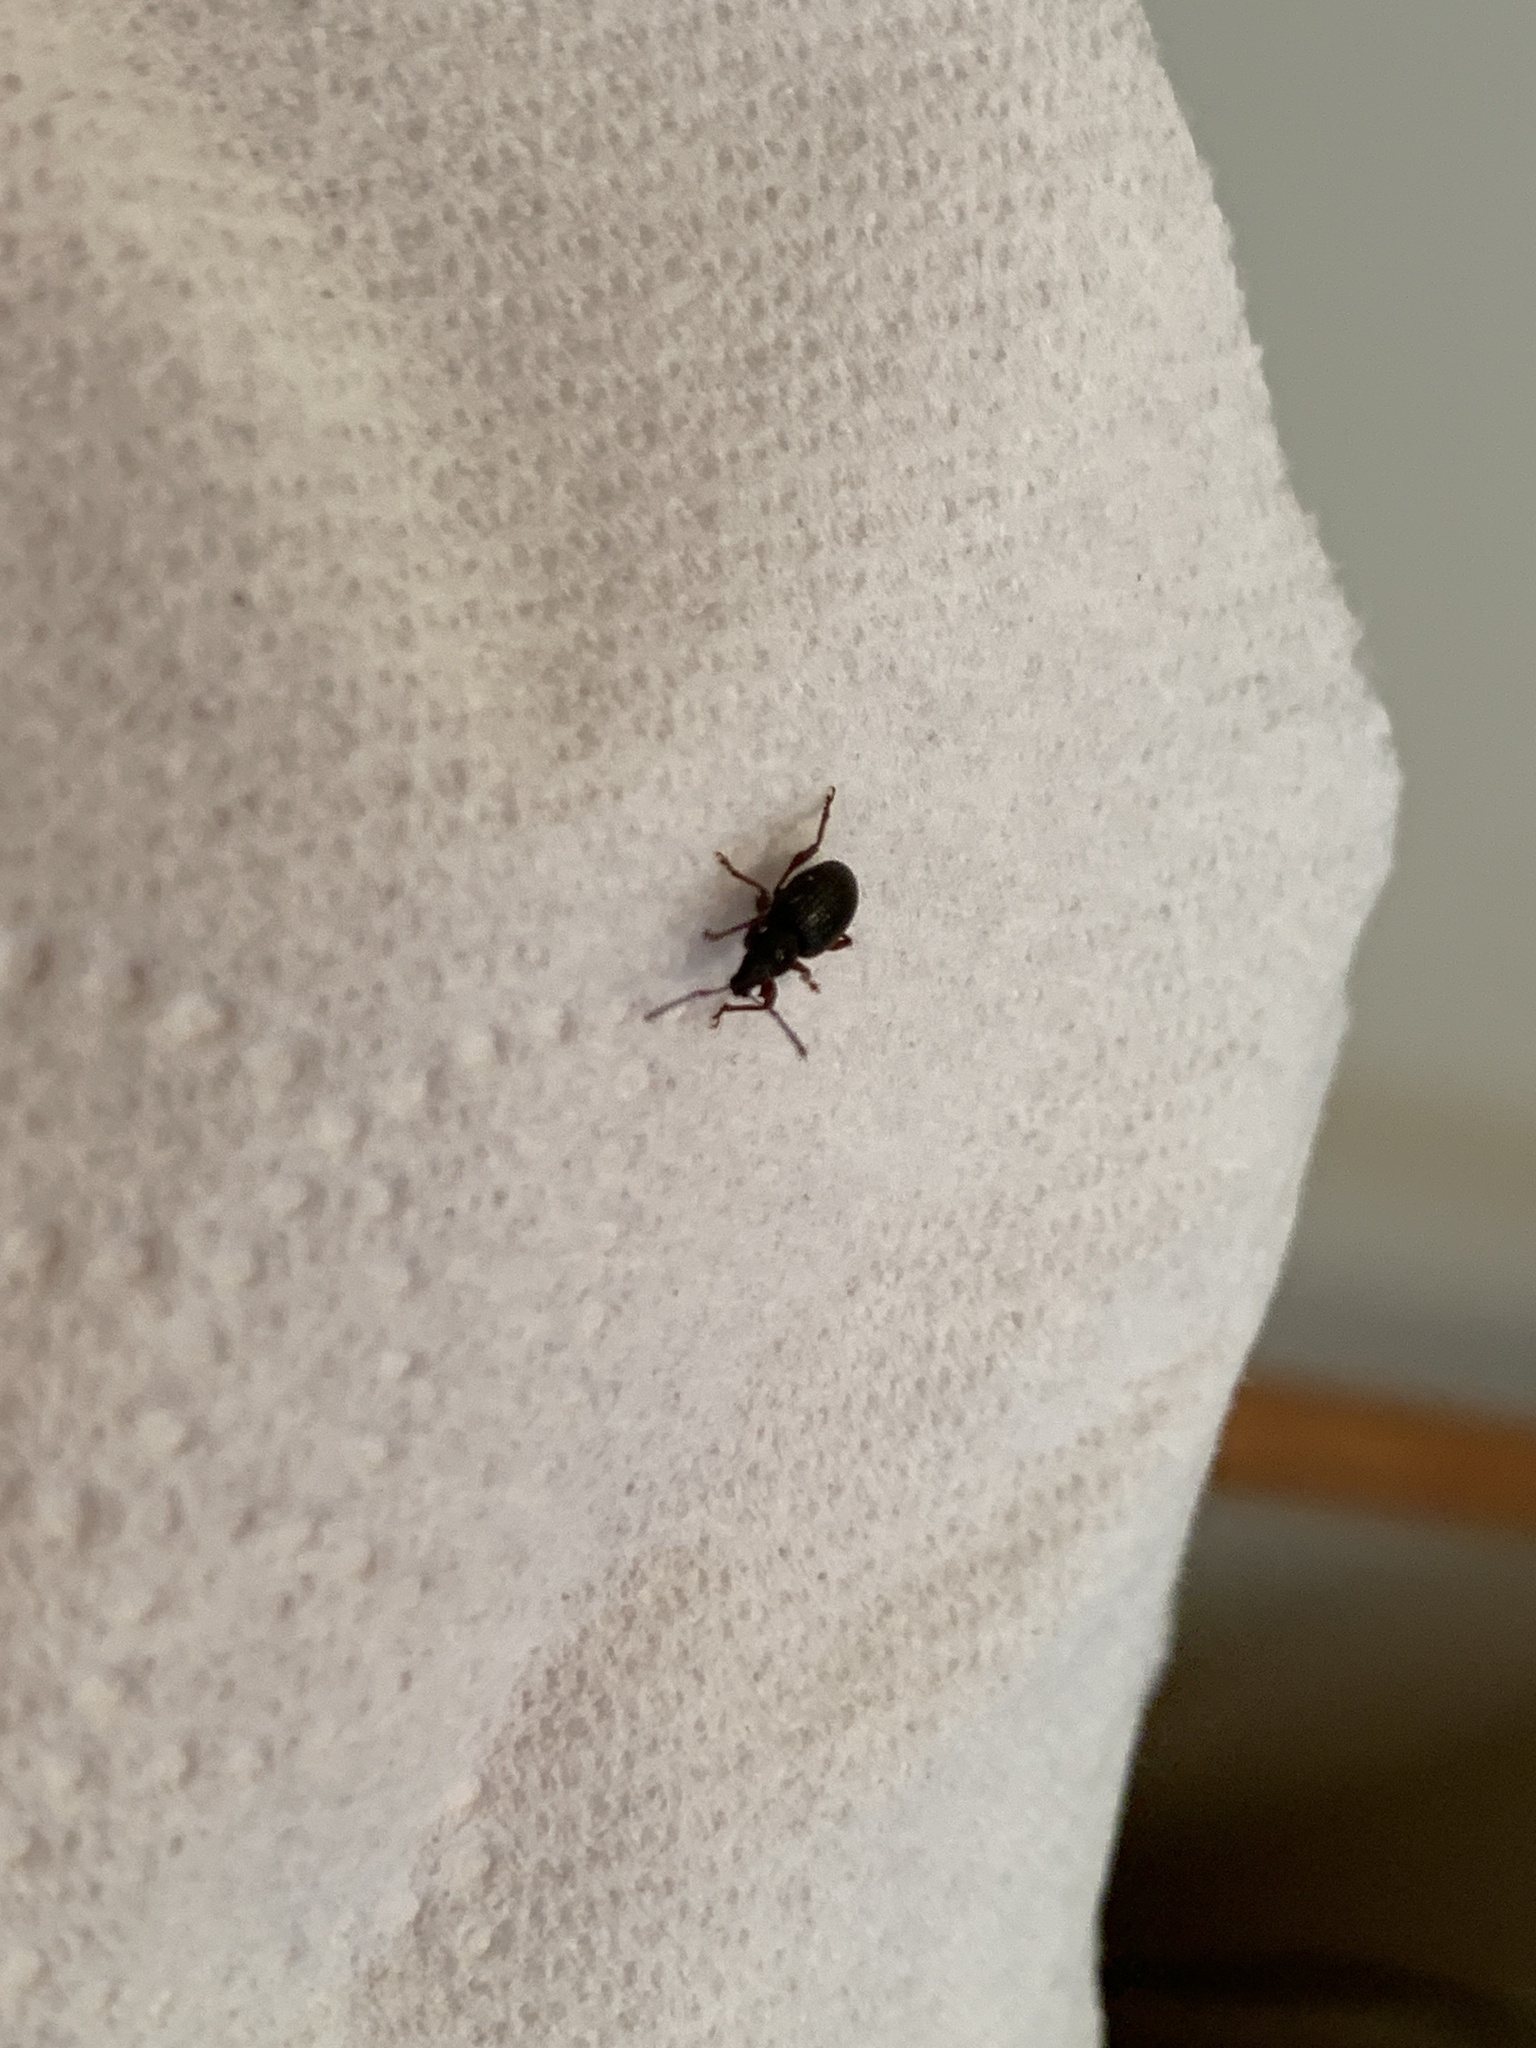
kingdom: Animalia
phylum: Arthropoda
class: Insecta
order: Coleoptera
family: Curculionidae
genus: Otiorhynchus
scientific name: Otiorhynchus ovatus
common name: Strawberry root weevil
